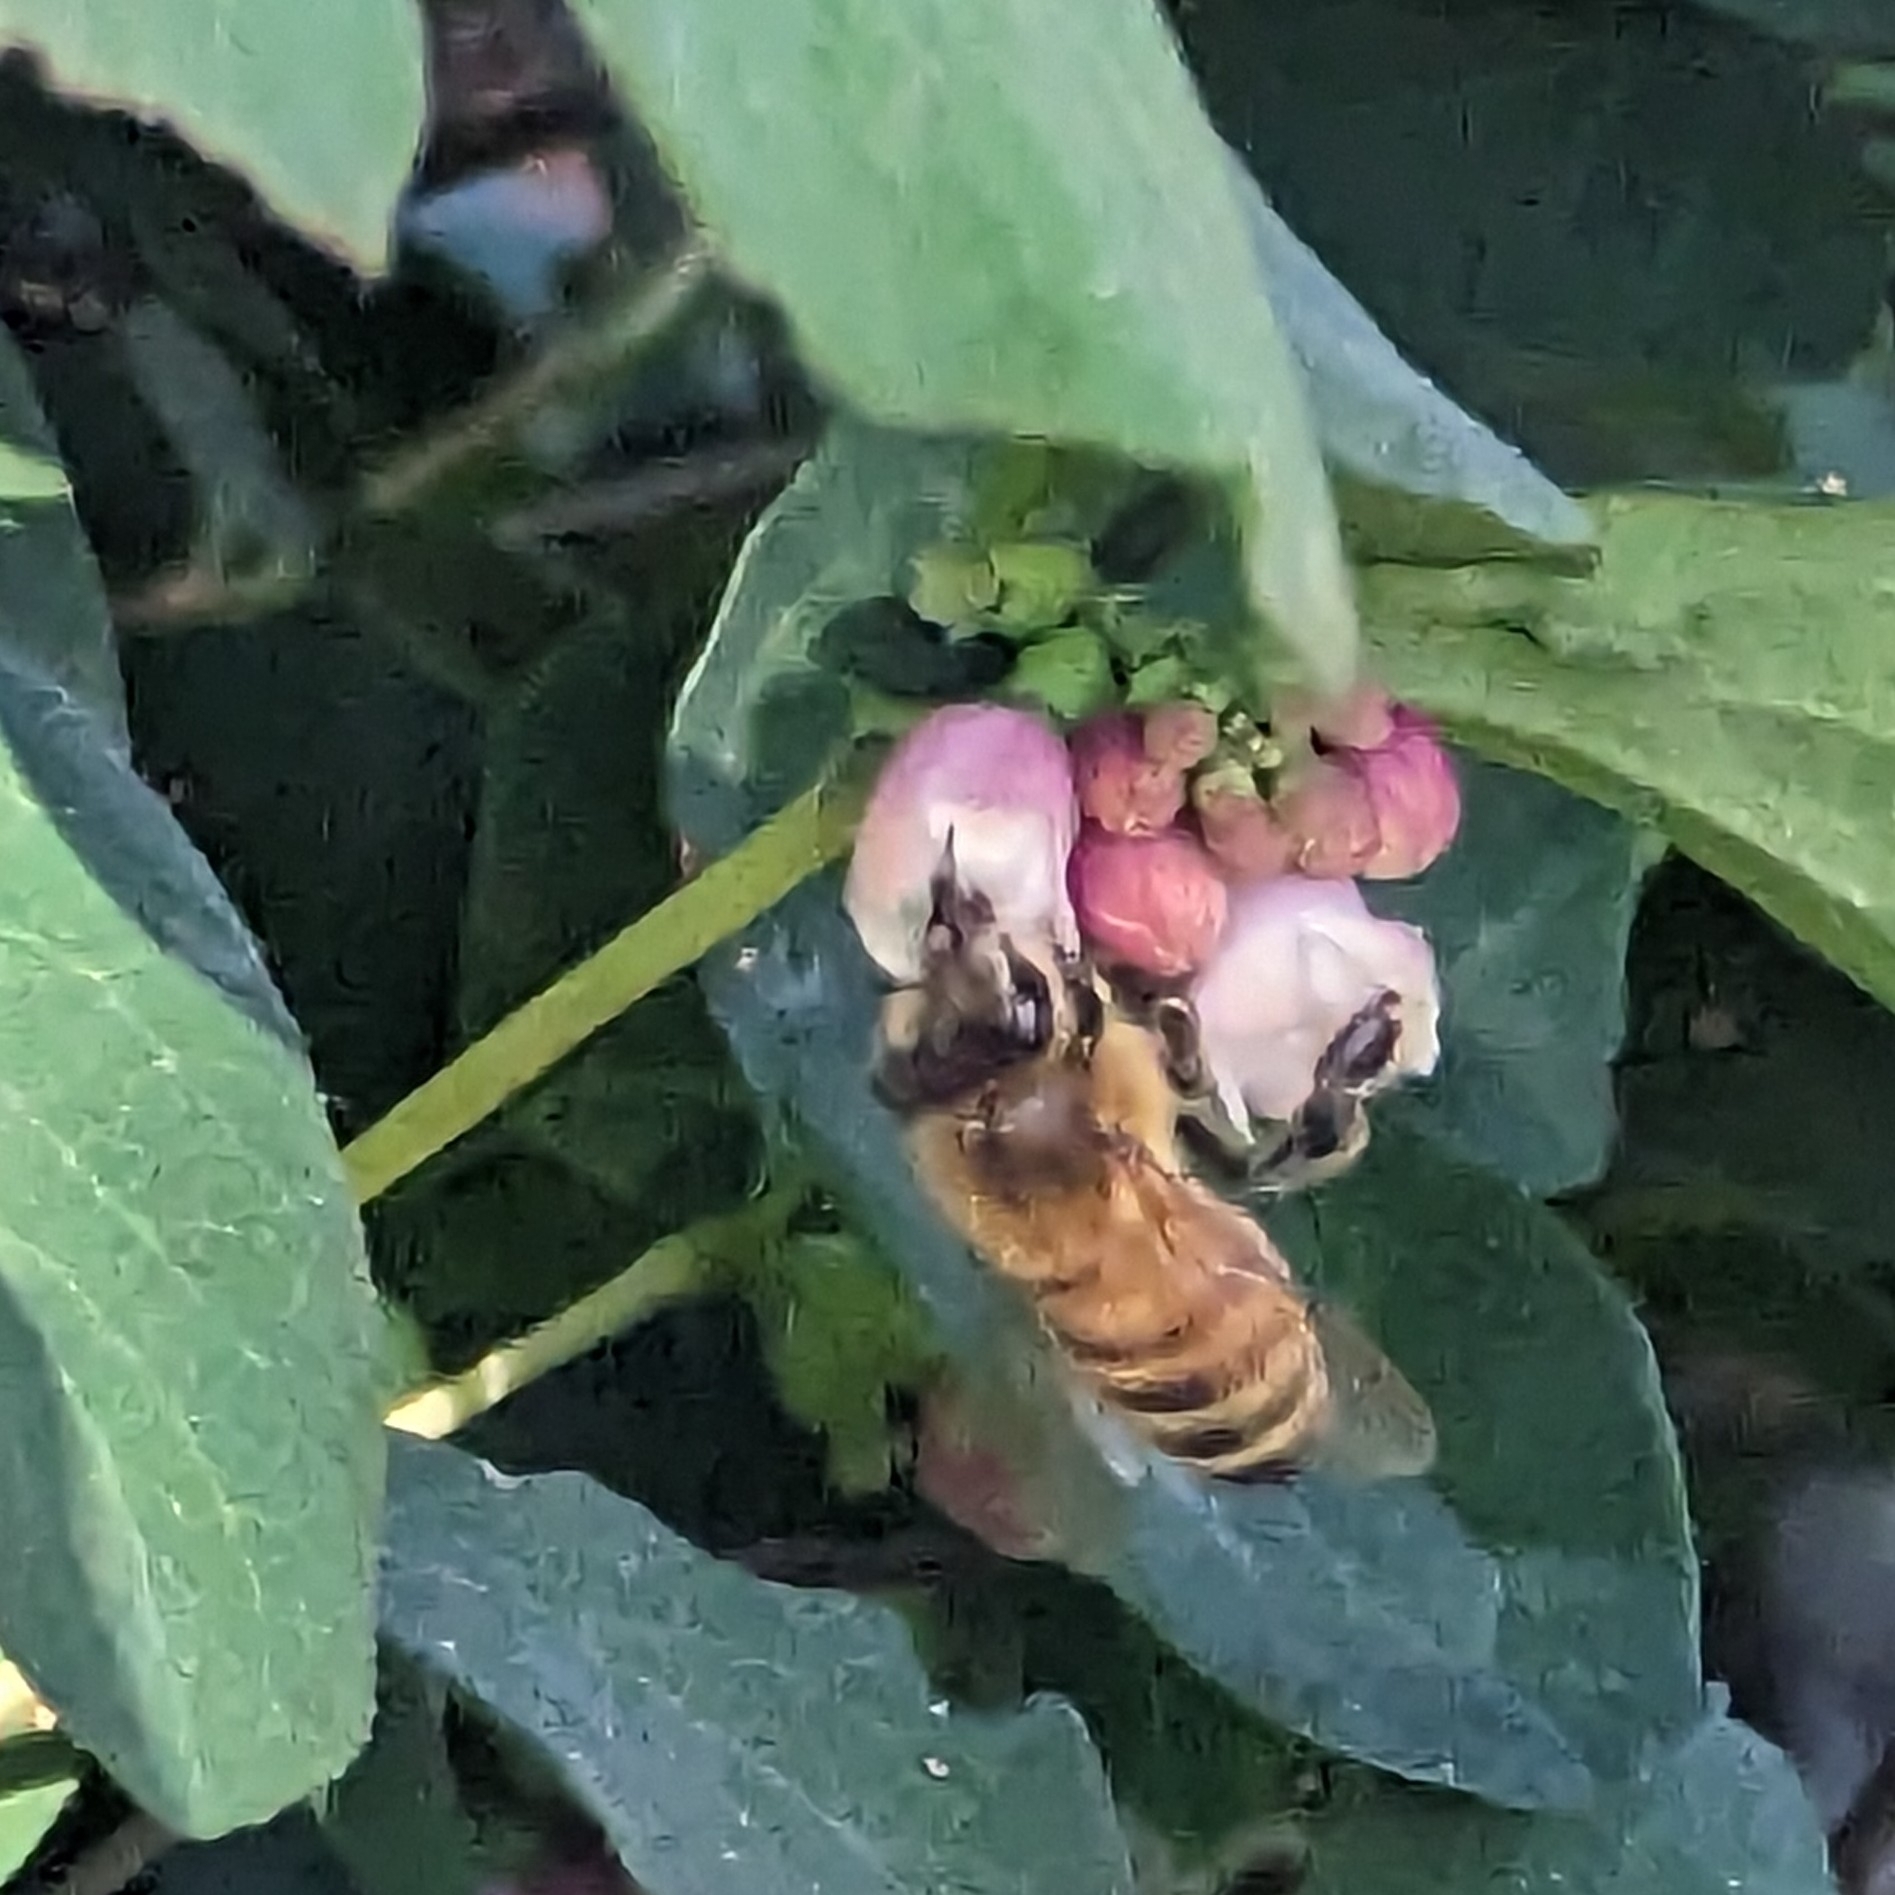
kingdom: Animalia
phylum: Arthropoda
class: Insecta
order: Hymenoptera
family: Apidae
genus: Apis
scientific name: Apis mellifera
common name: Honey bee
